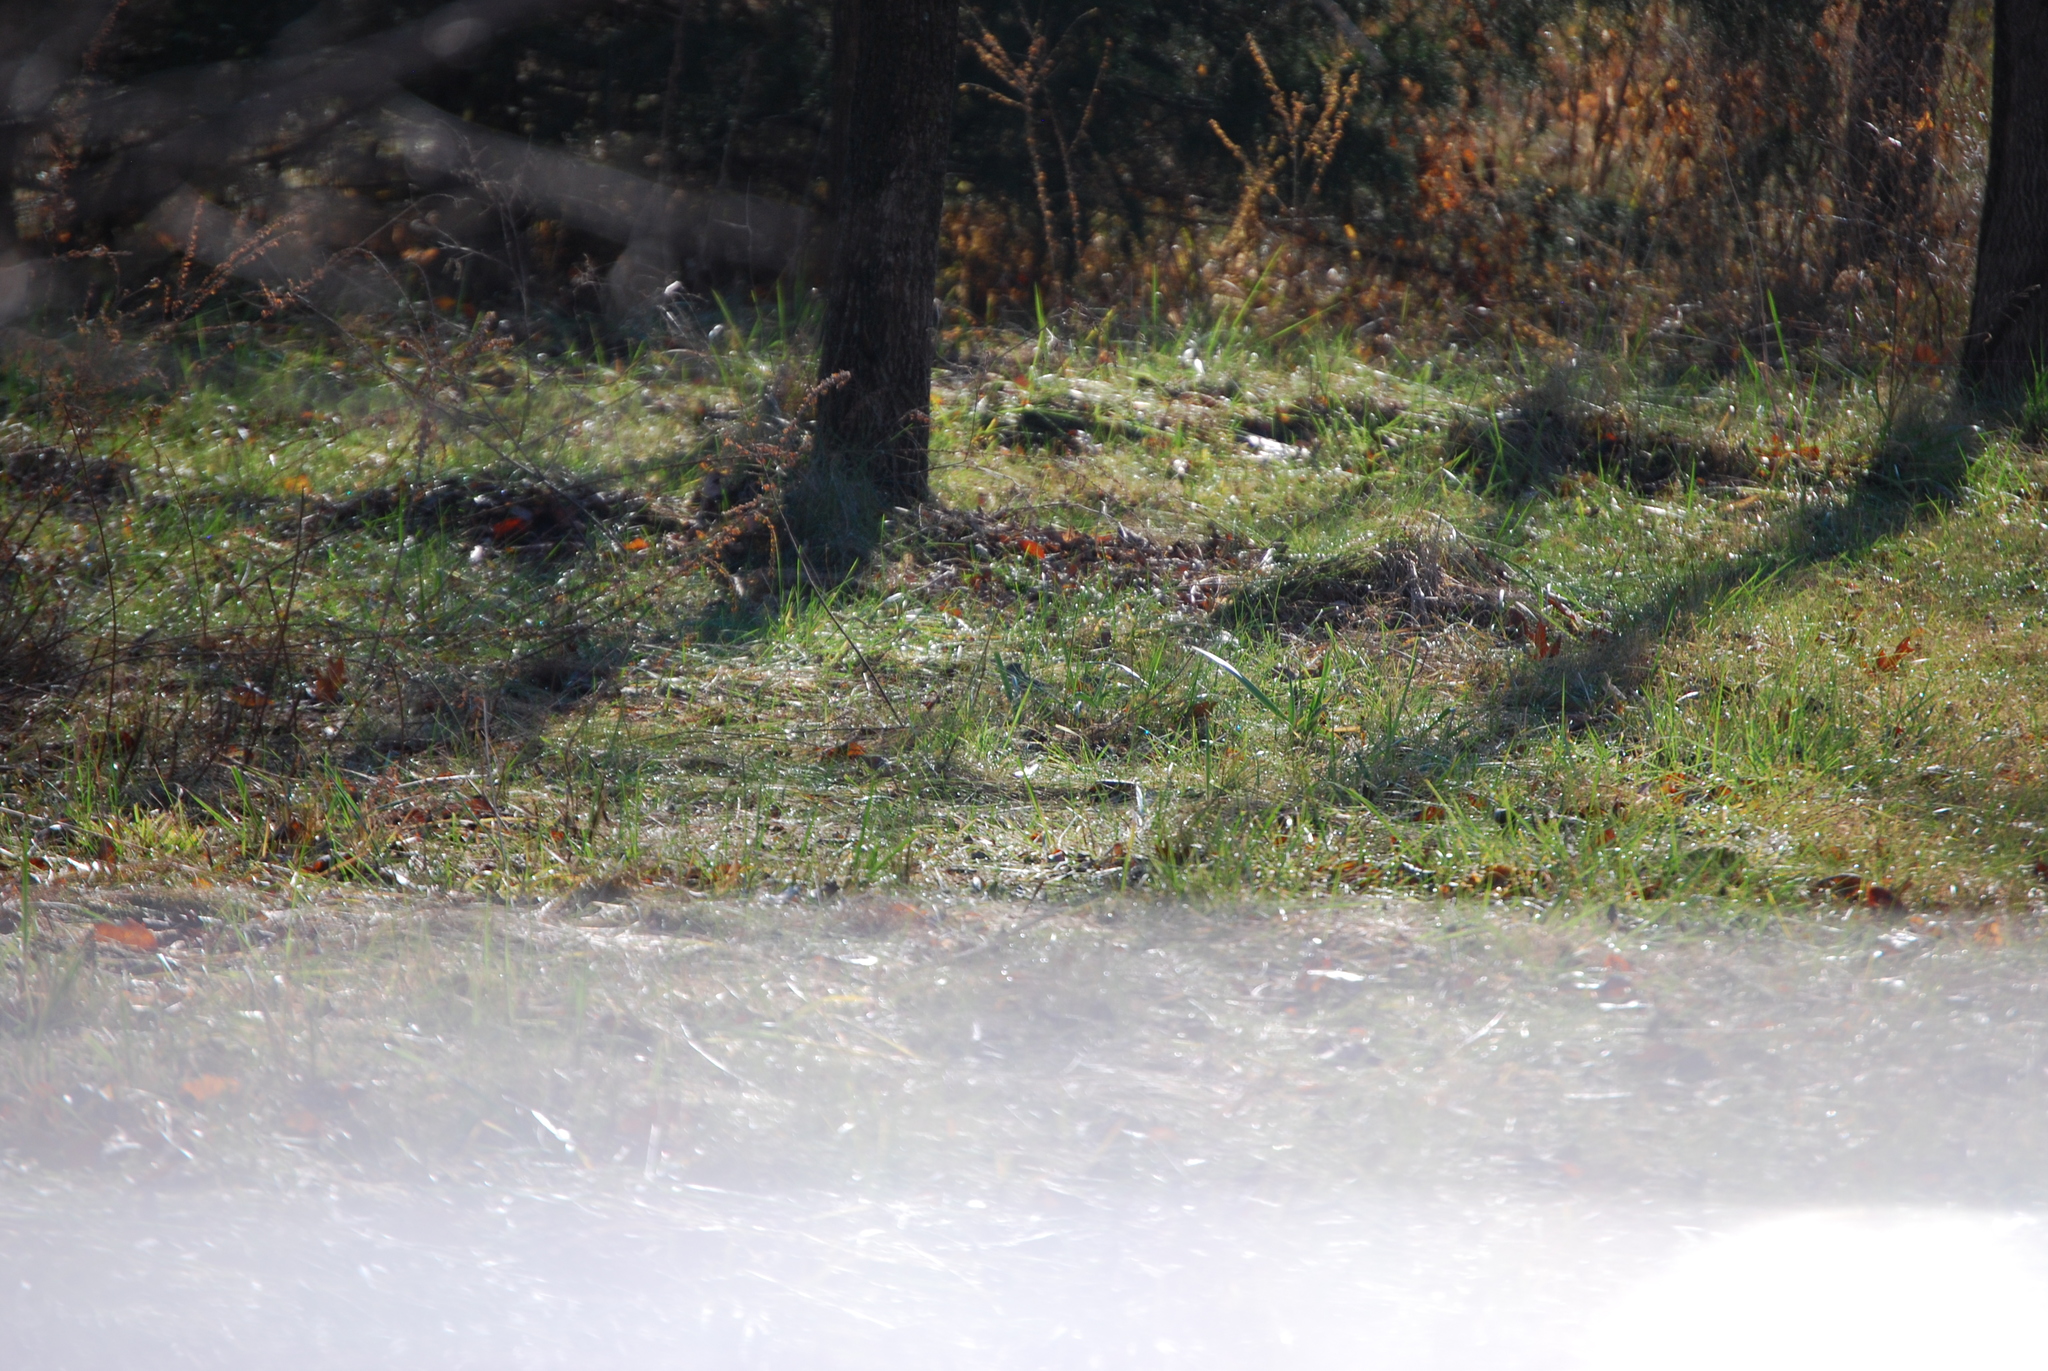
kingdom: Animalia
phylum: Chordata
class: Aves
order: Passeriformes
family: Paridae
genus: Baeolophus
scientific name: Baeolophus bicolor
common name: Tufted titmouse
